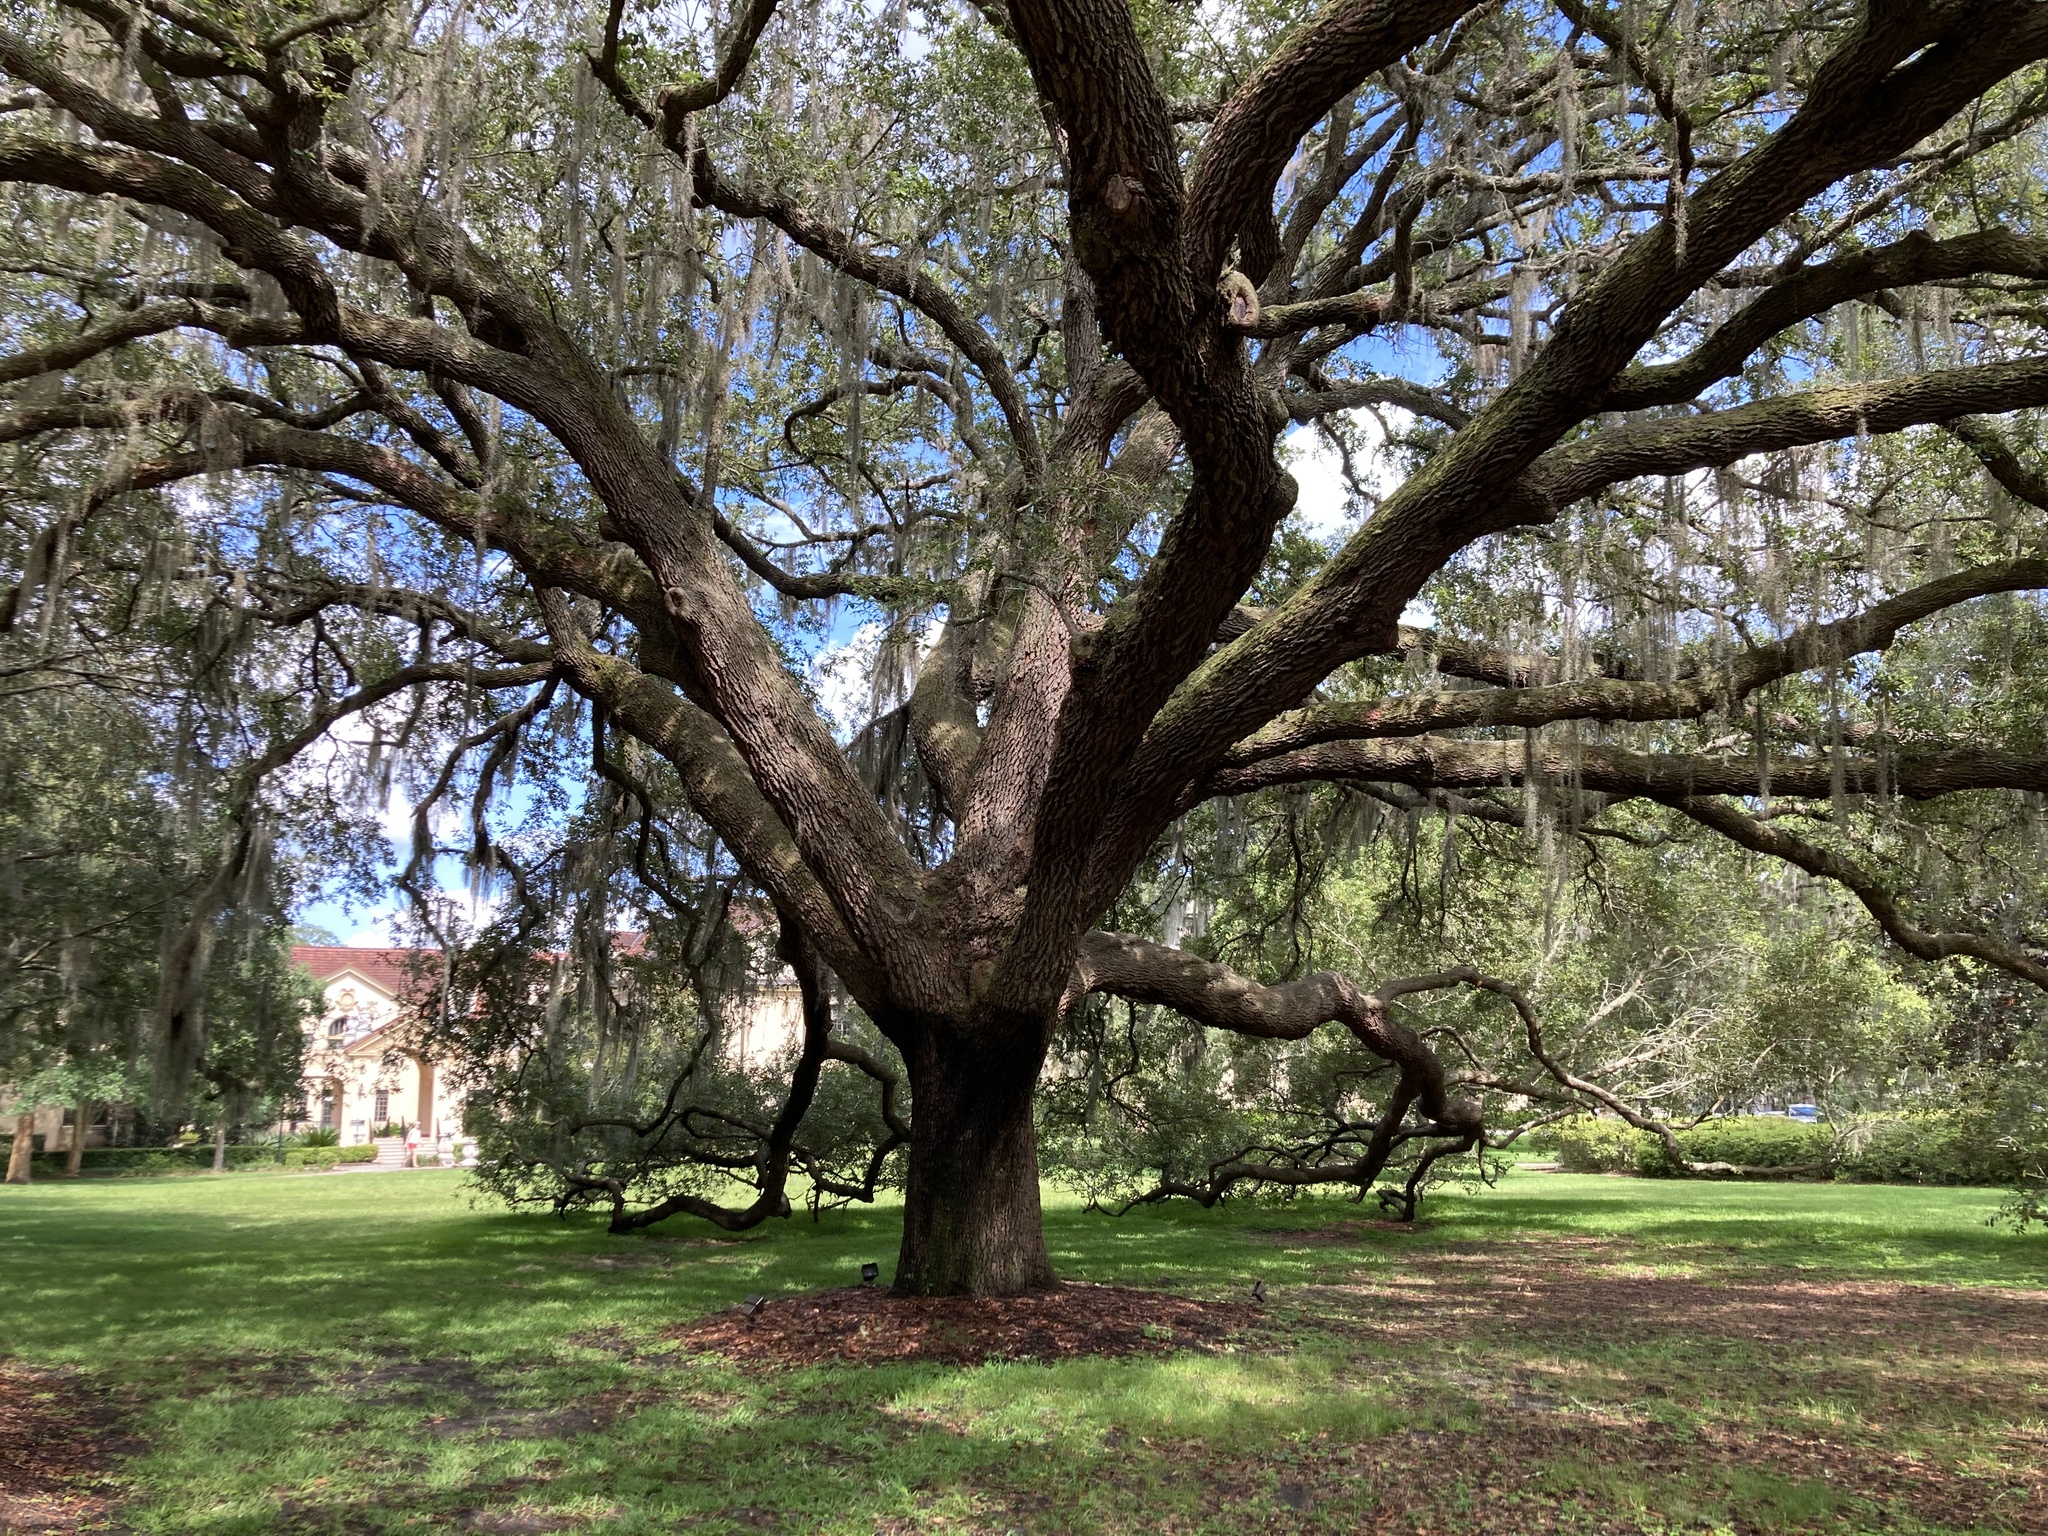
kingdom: Plantae
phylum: Tracheophyta
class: Magnoliopsida
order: Fagales
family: Fagaceae
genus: Quercus
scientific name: Quercus virginiana
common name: Southern live oak
